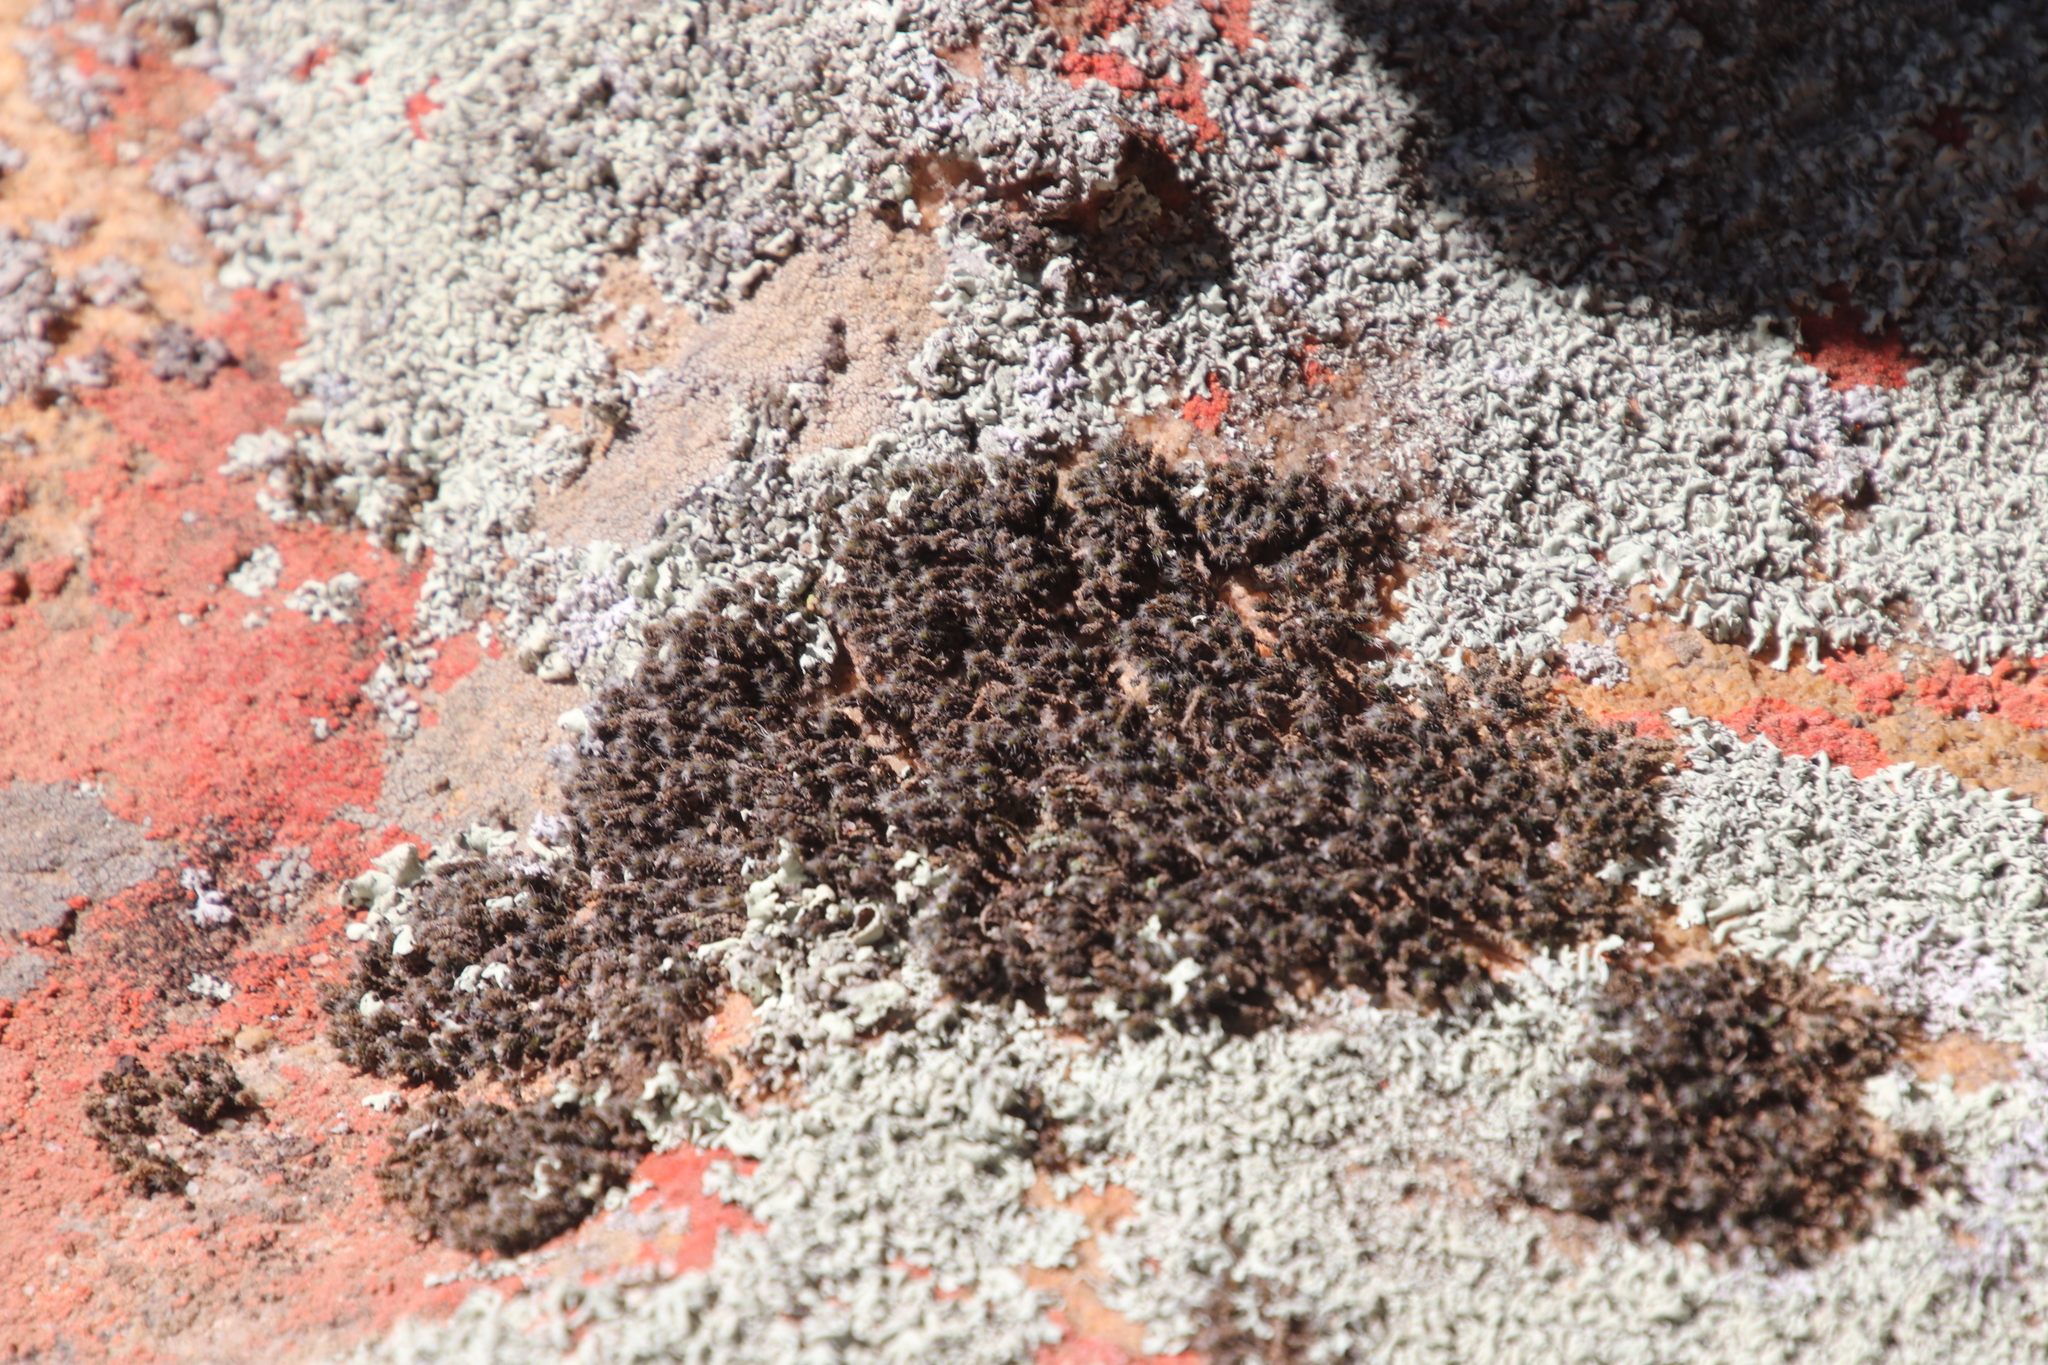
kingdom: Plantae
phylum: Bryophyta
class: Bryopsida
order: Grimmiales
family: Grimmiaceae
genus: Grimmia
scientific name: Grimmia laevigata
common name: Hoary grimmia
